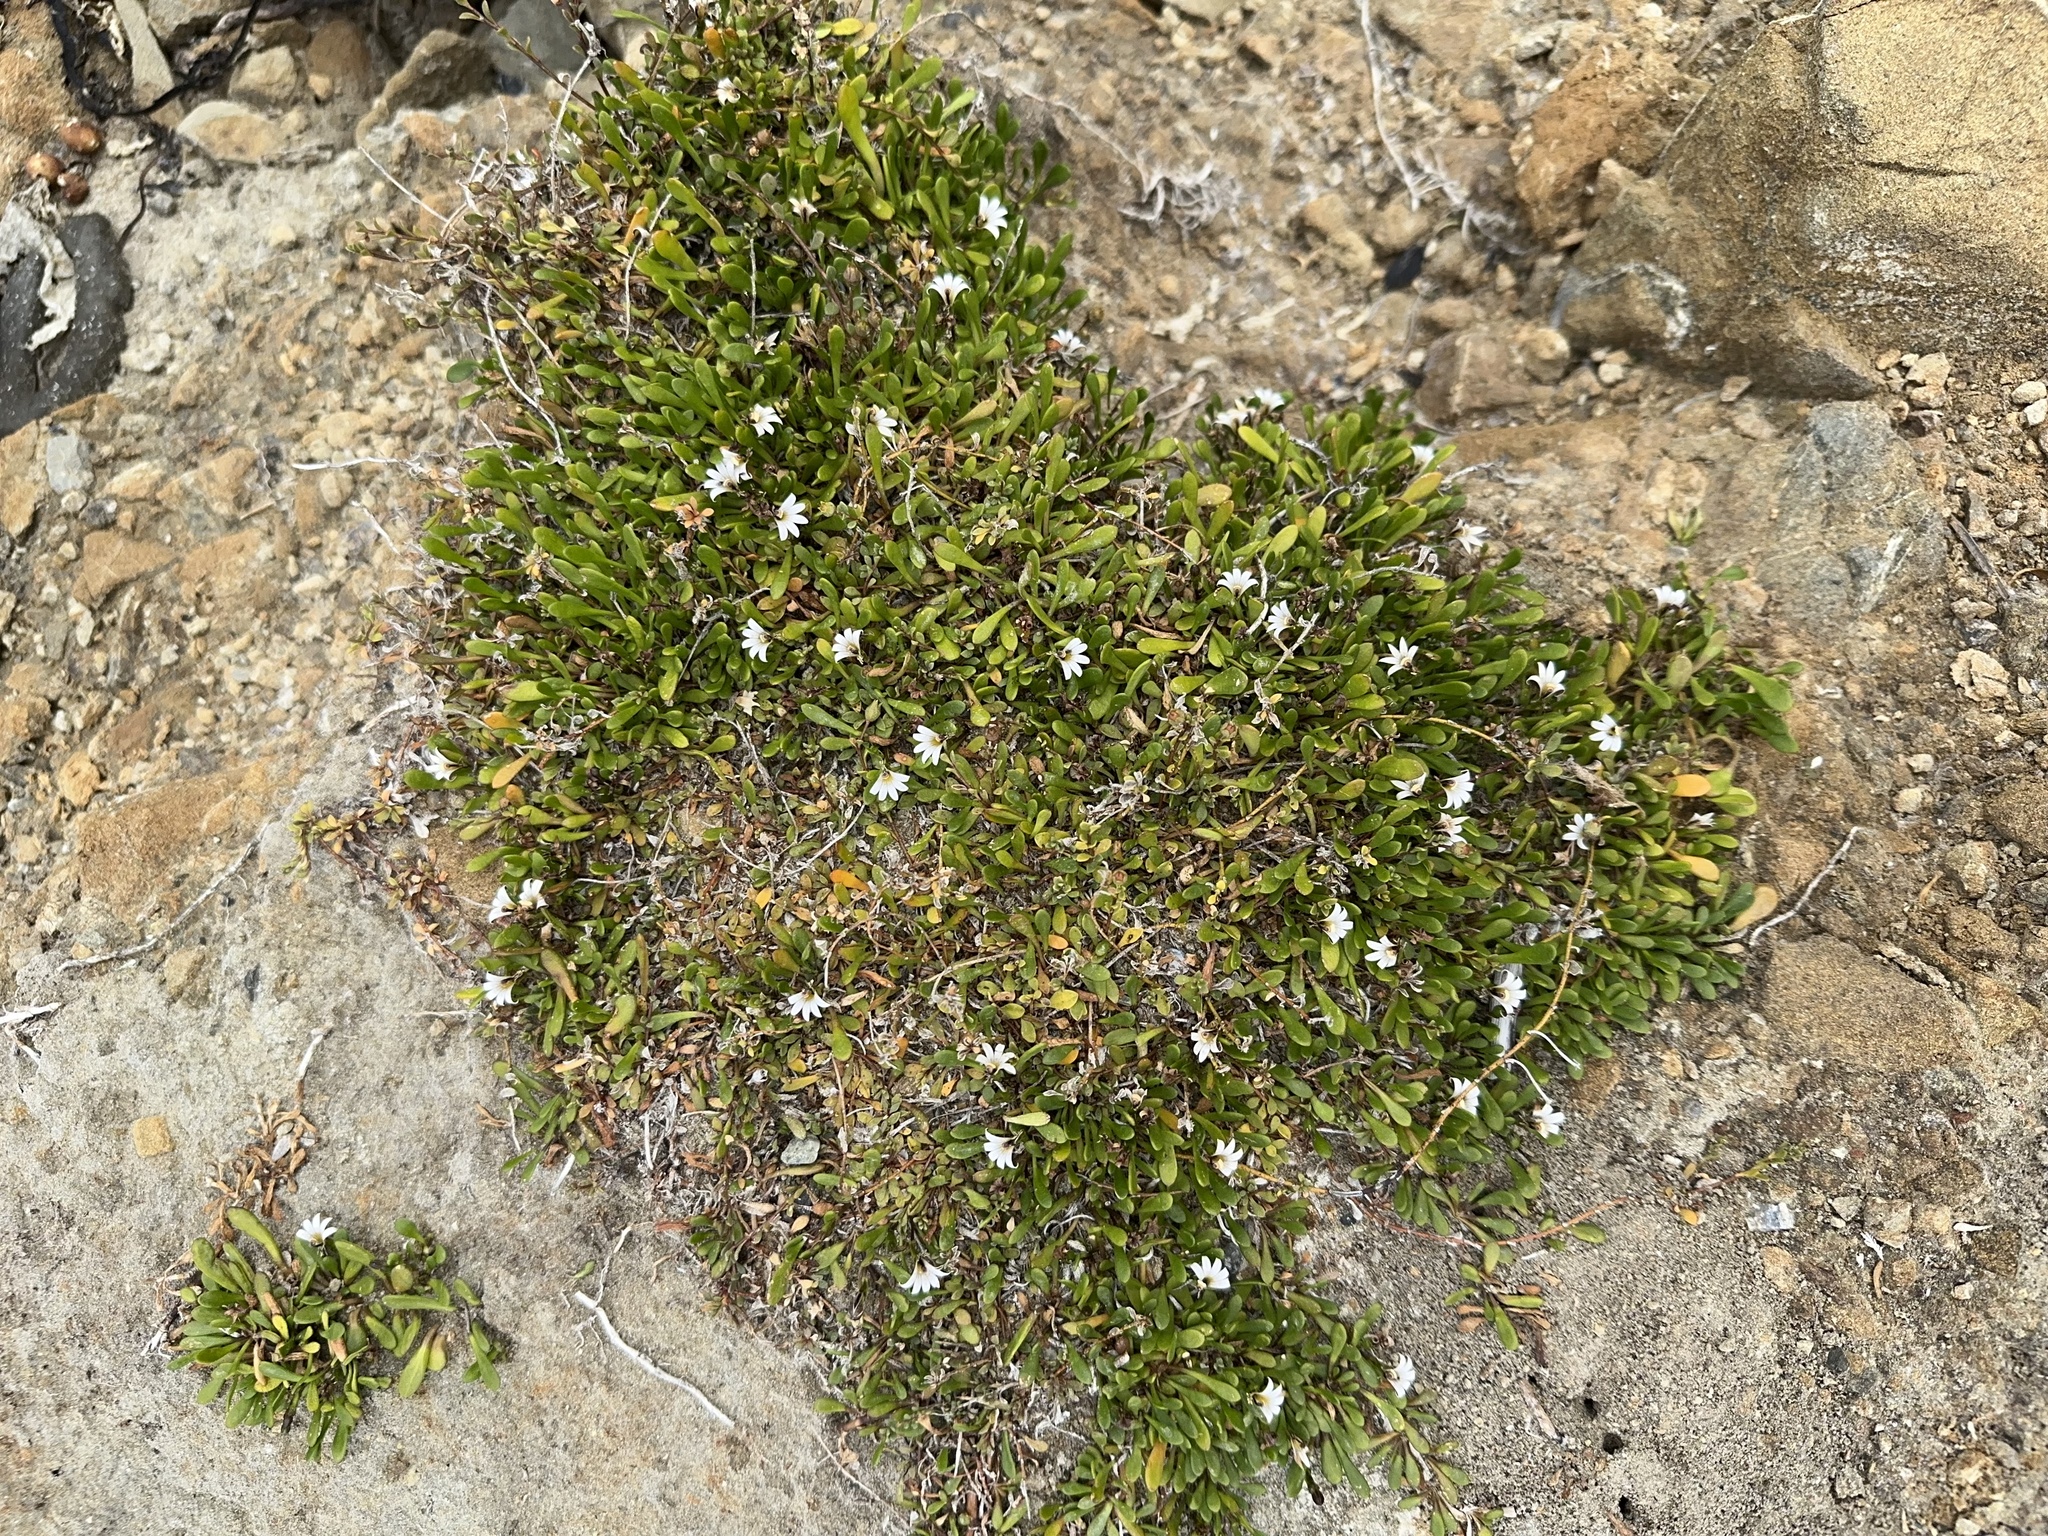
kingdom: Plantae
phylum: Tracheophyta
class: Magnoliopsida
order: Asterales
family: Goodeniaceae
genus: Goodenia
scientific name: Goodenia radicans
